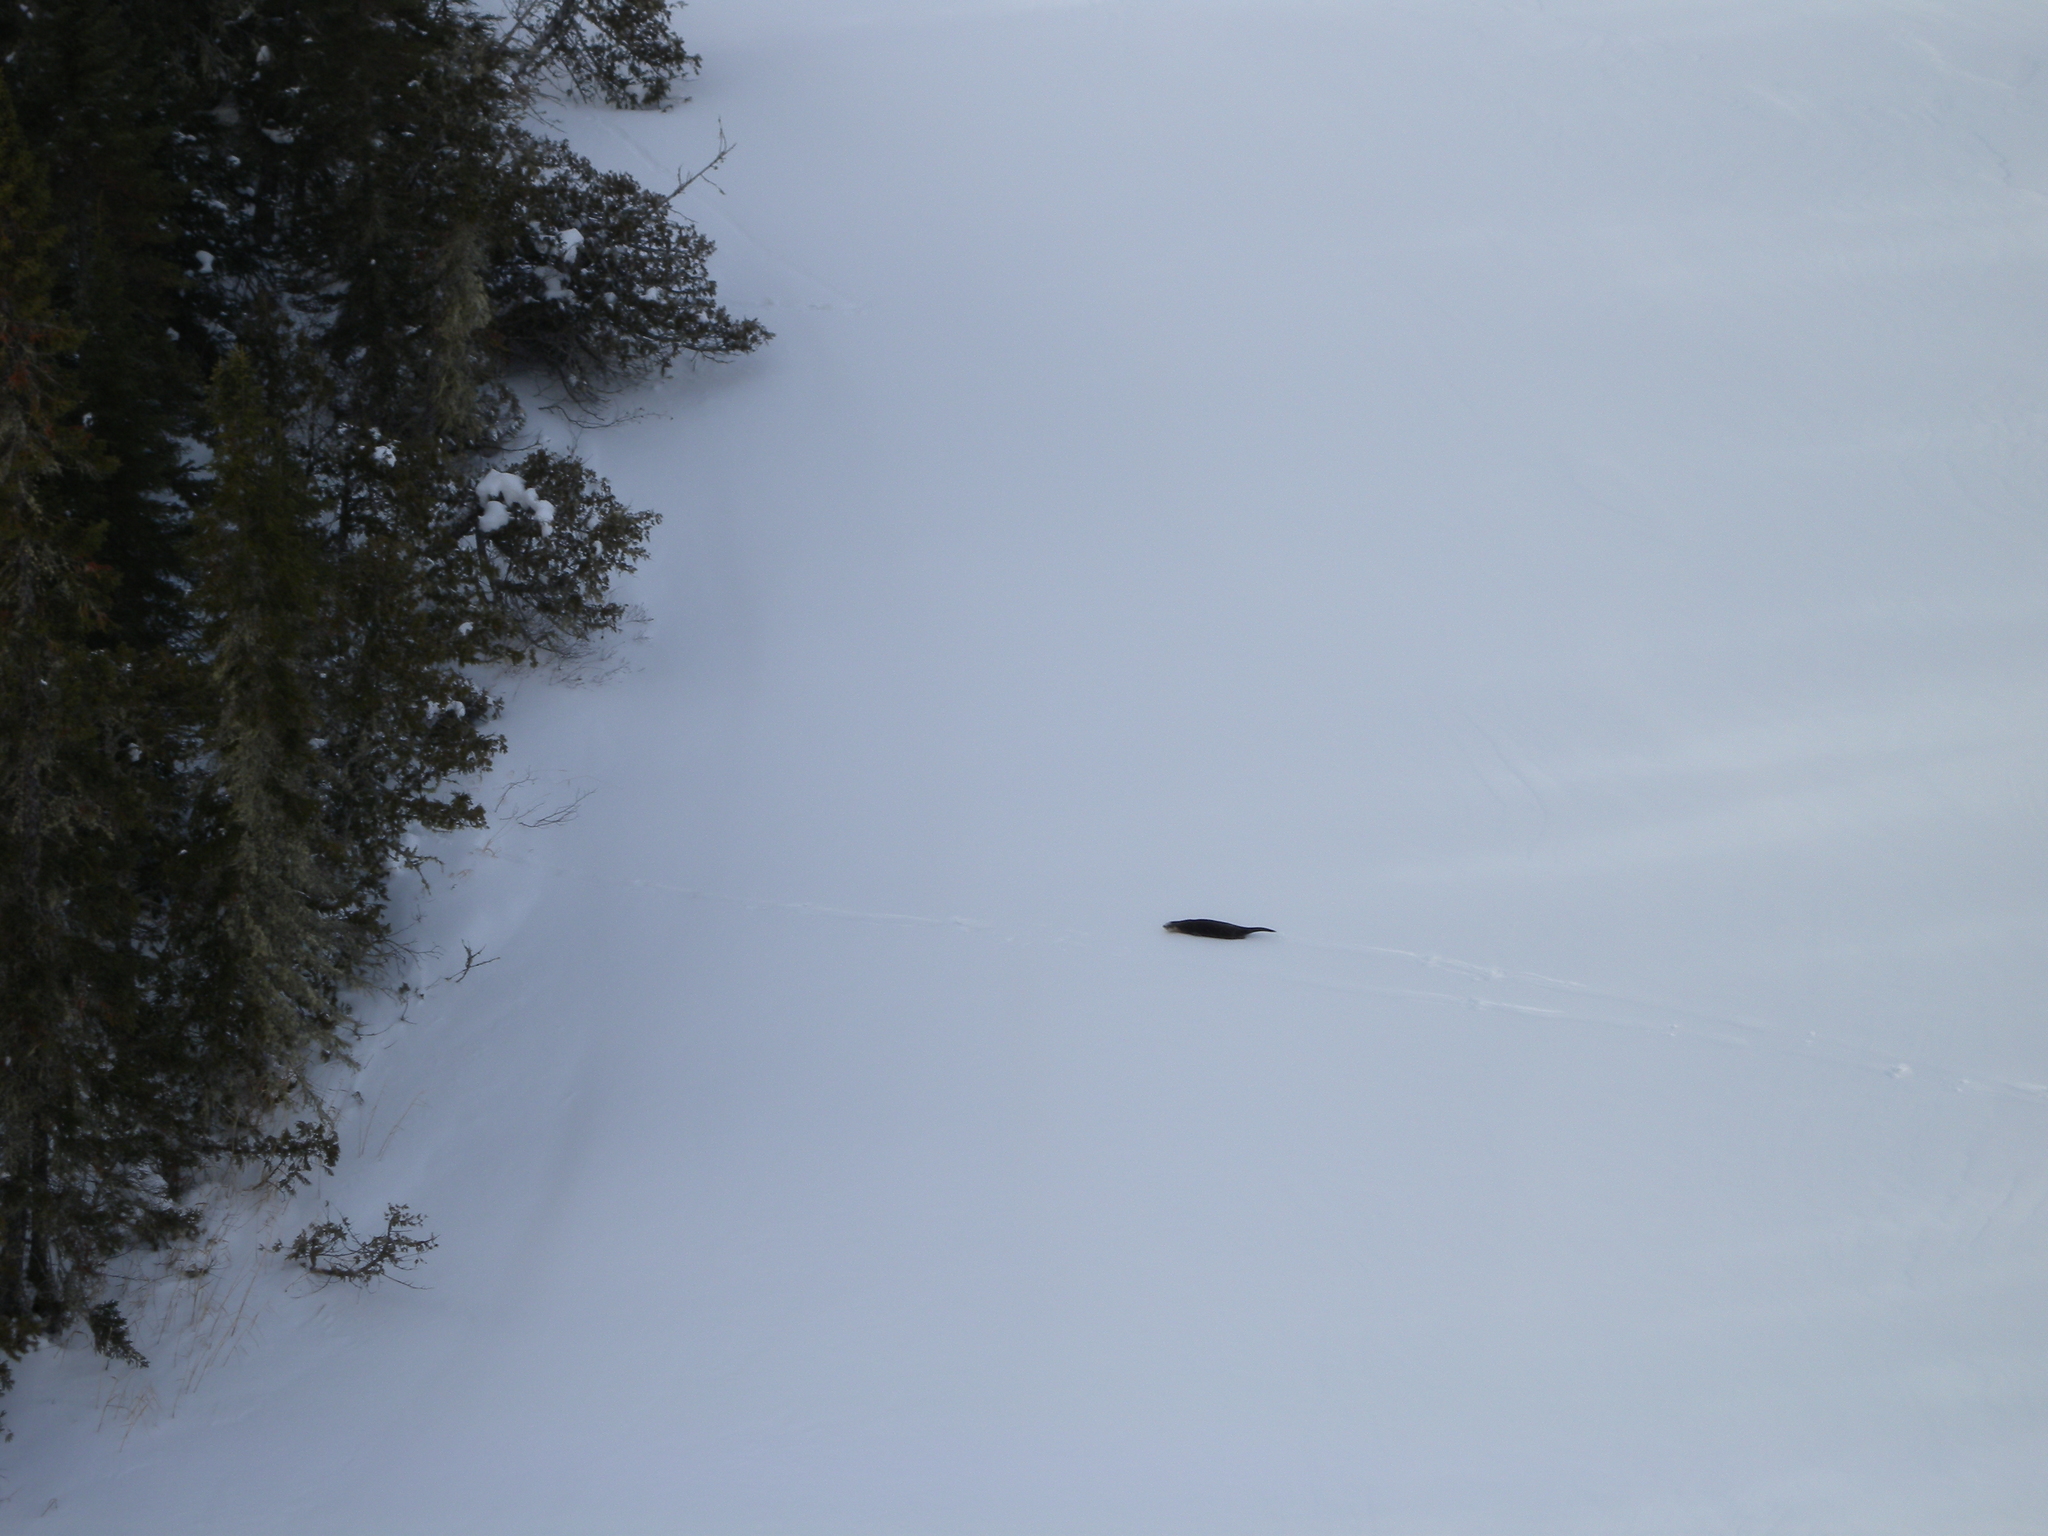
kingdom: Animalia
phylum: Chordata
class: Mammalia
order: Carnivora
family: Mustelidae
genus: Lontra
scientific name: Lontra canadensis
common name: North american river otter
